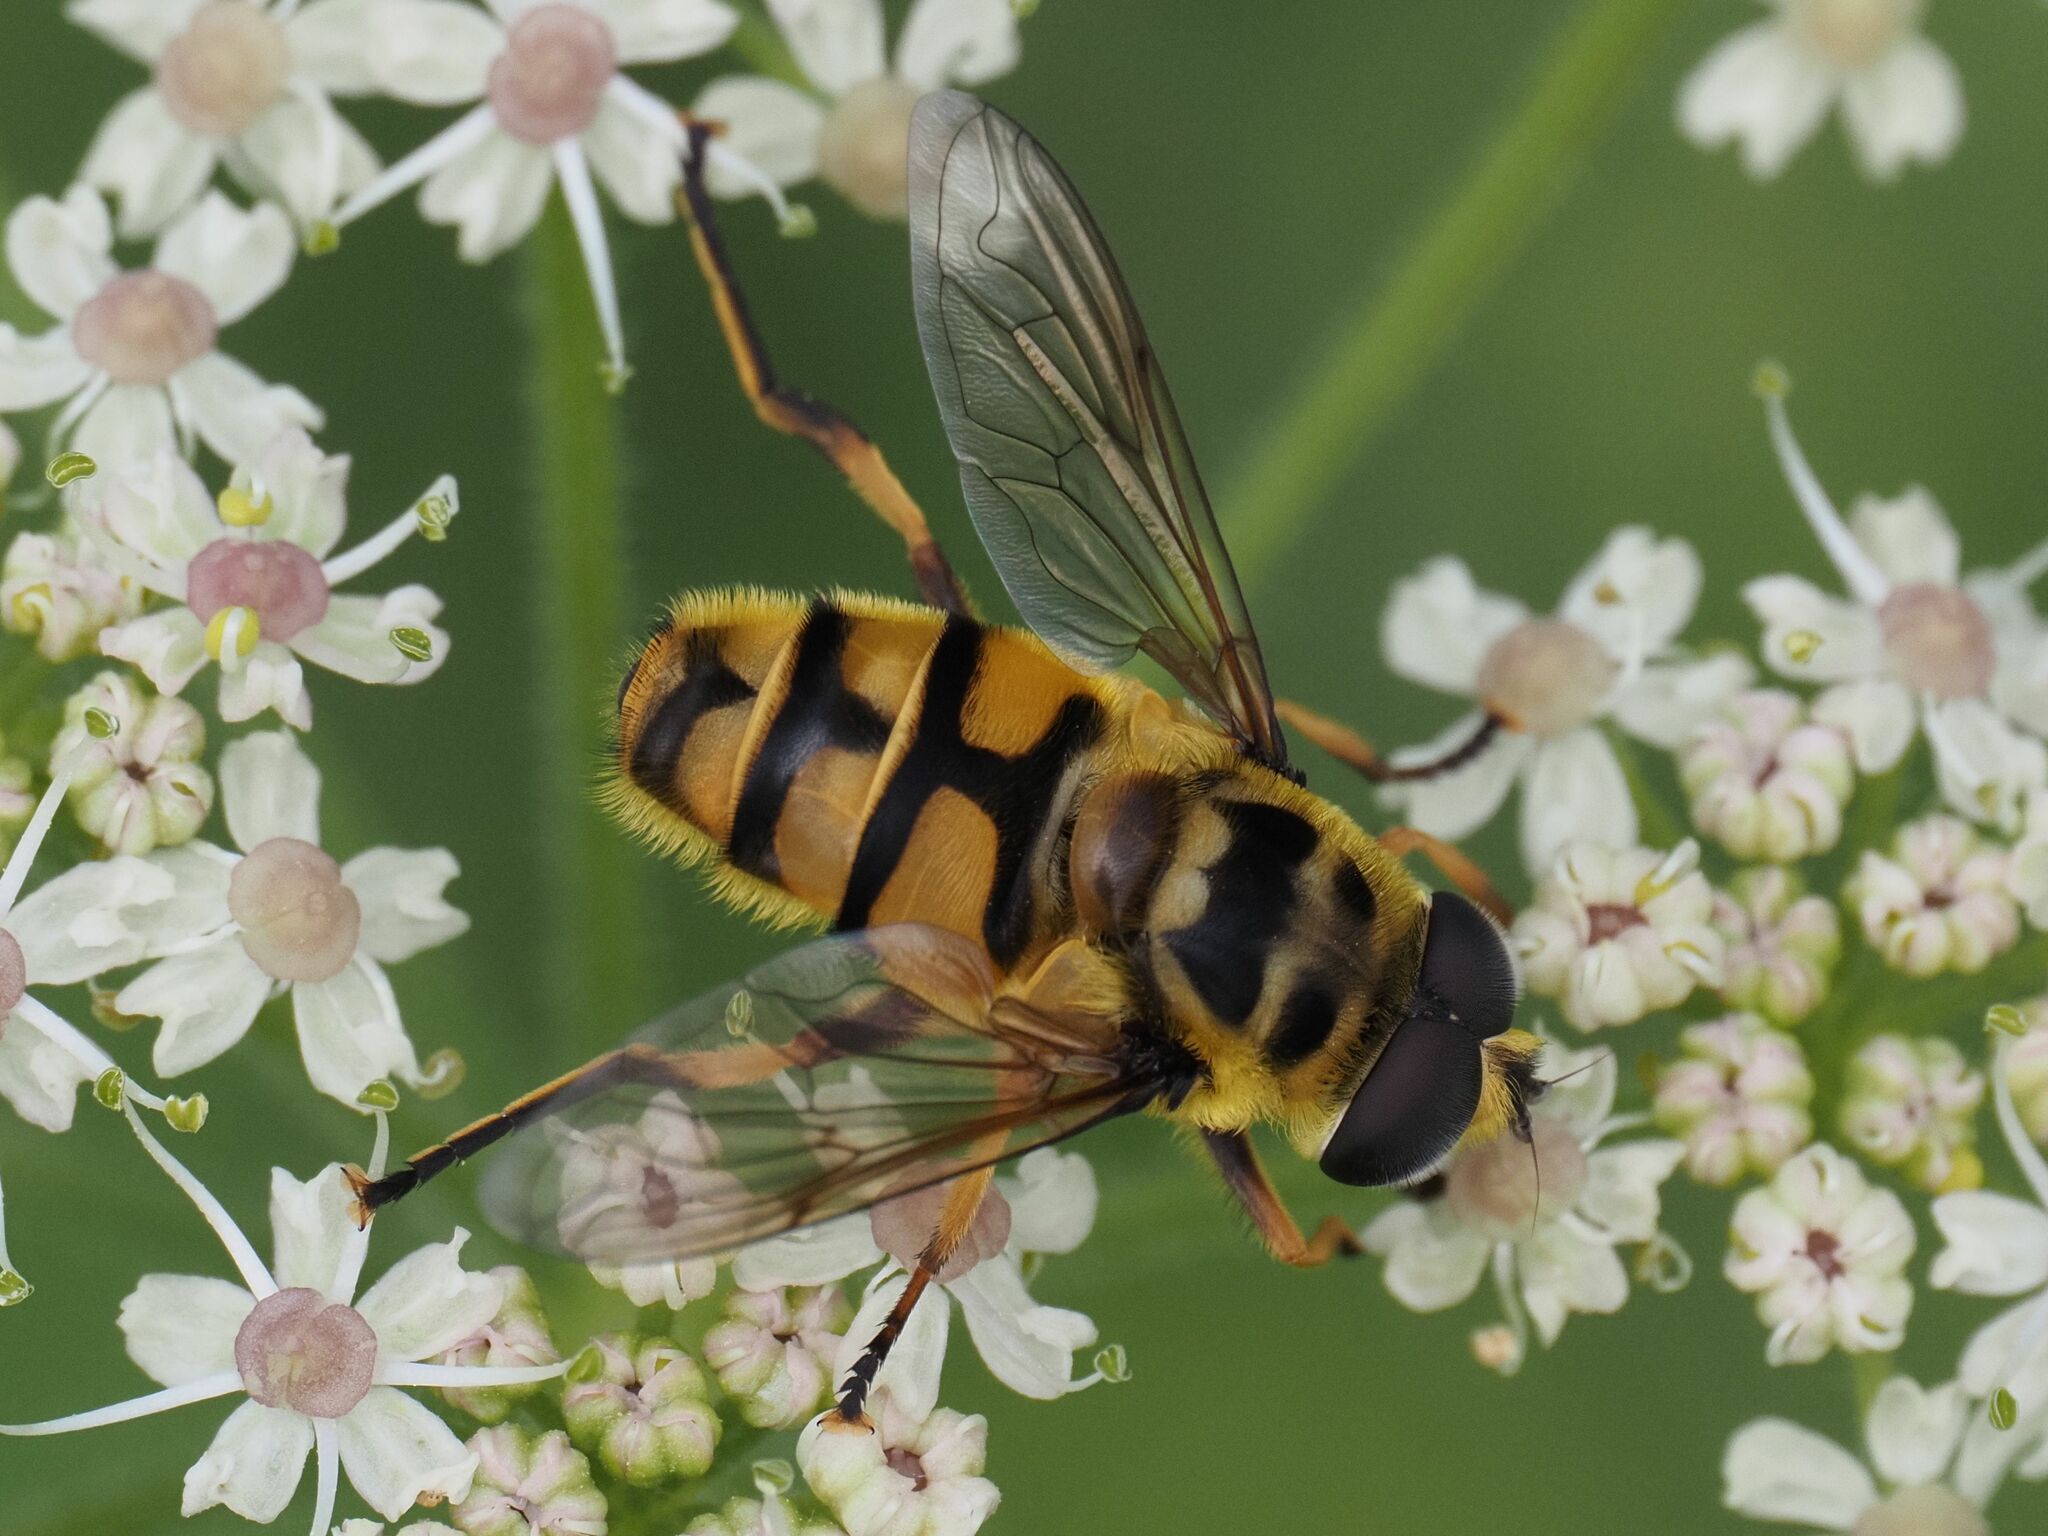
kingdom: Animalia
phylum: Arthropoda
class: Insecta
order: Diptera
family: Syrphidae
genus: Myathropa
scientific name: Myathropa florea
